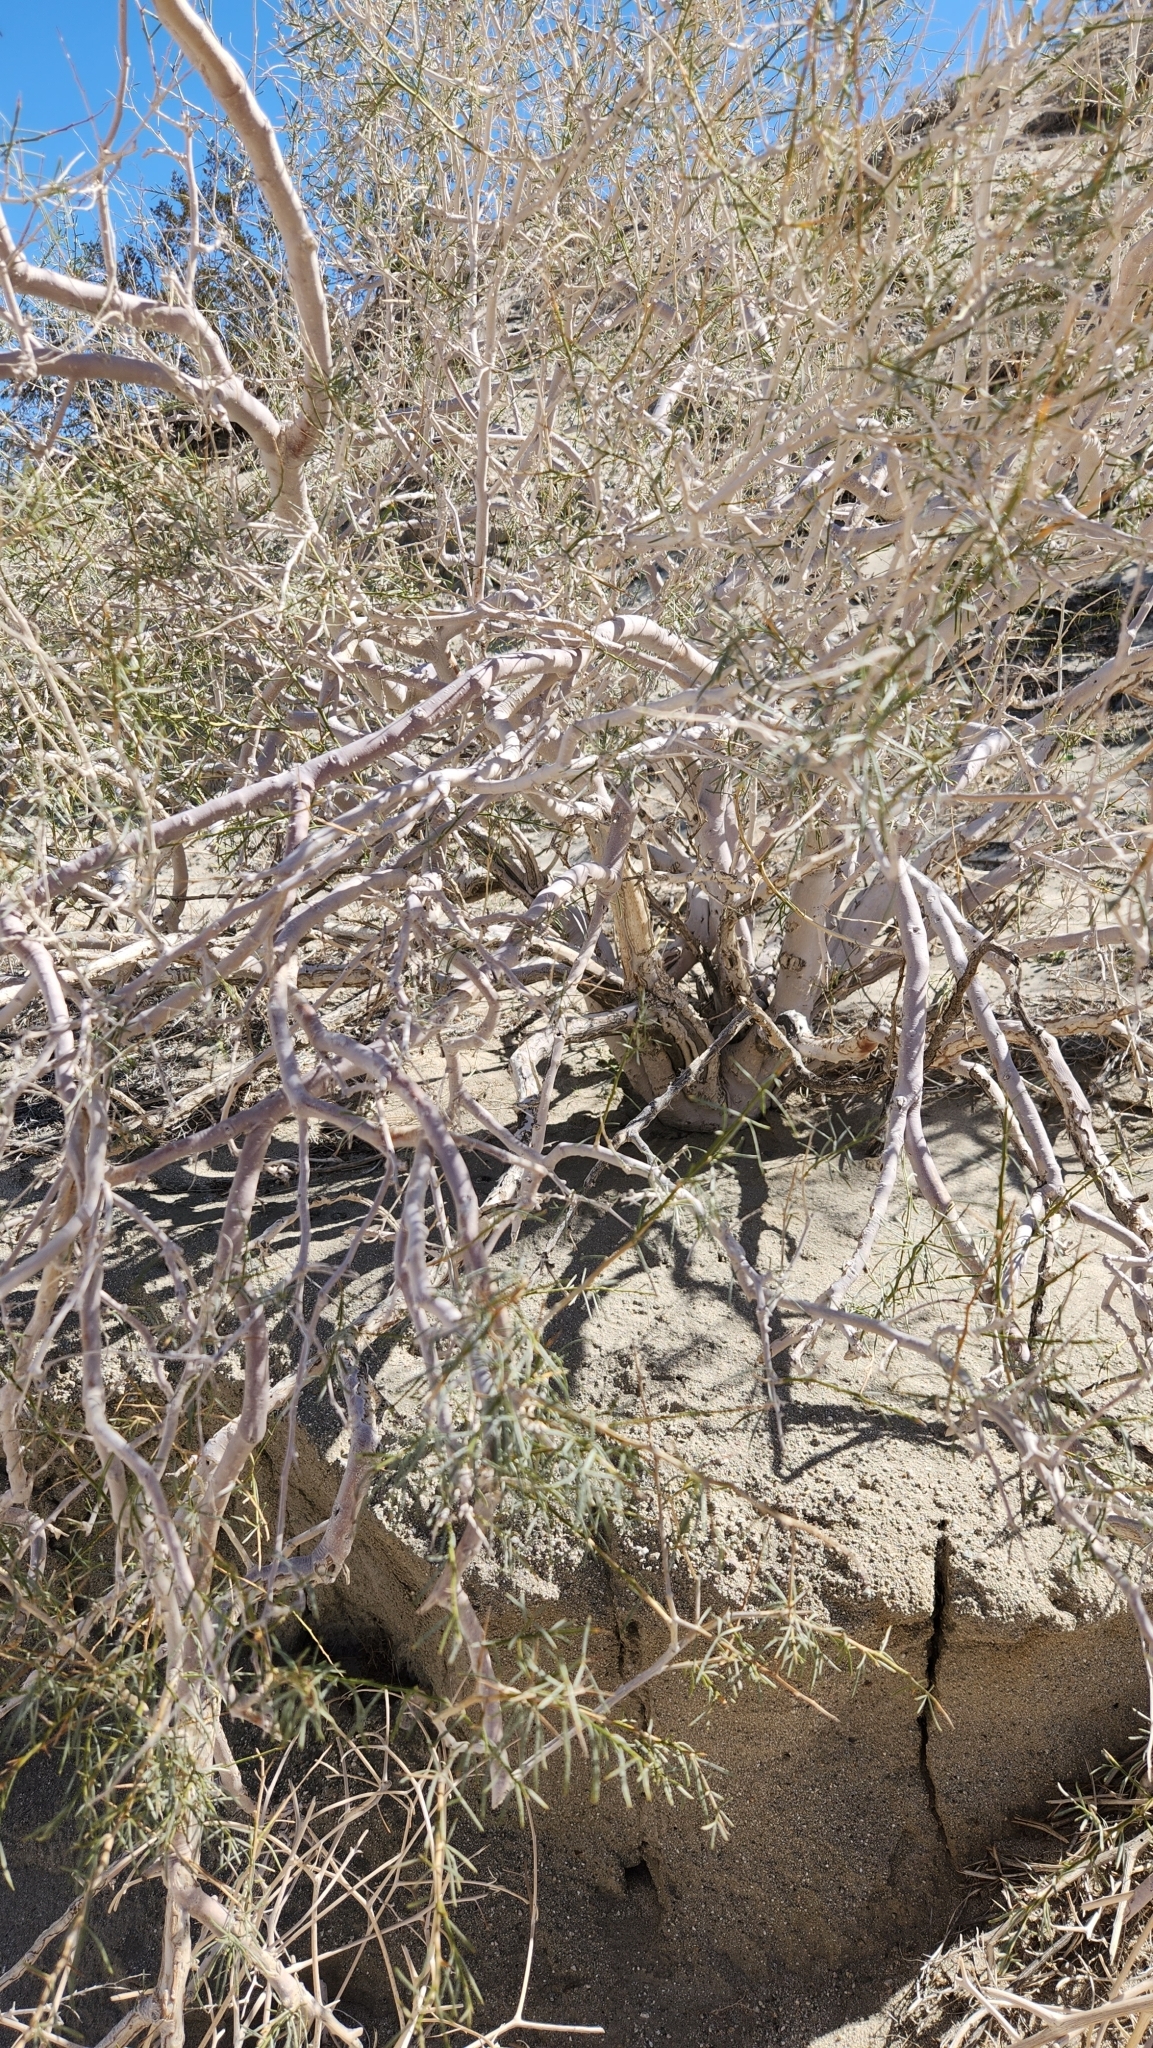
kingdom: Plantae
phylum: Tracheophyta
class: Magnoliopsida
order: Fabales
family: Fabaceae
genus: Psorothamnus
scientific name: Psorothamnus schottii
